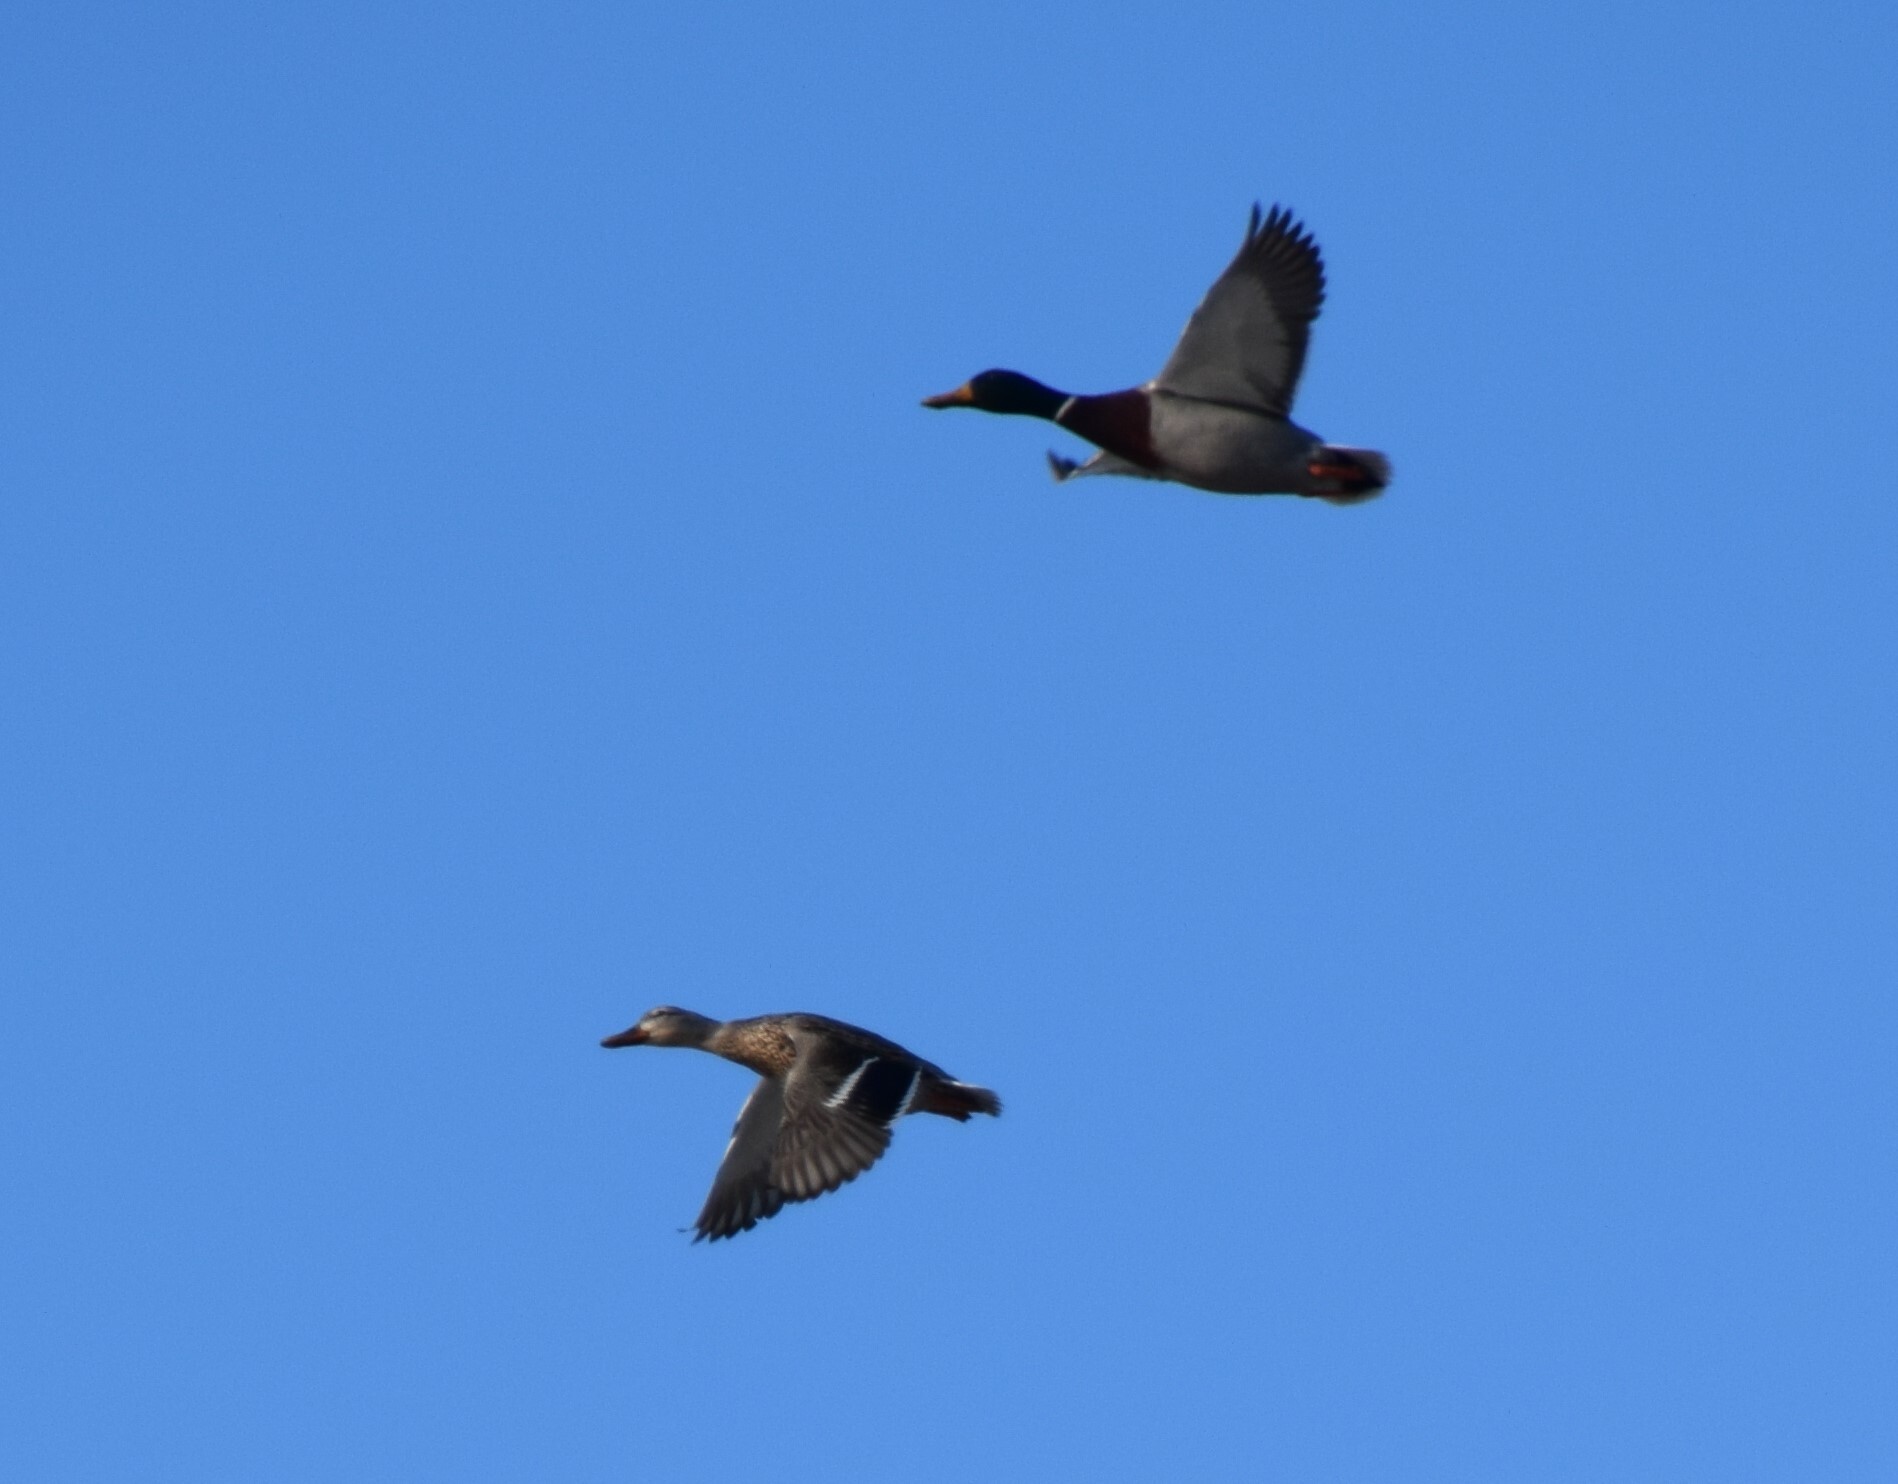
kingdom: Animalia
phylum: Chordata
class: Aves
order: Anseriformes
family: Anatidae
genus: Anas
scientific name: Anas platyrhynchos
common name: Mallard
